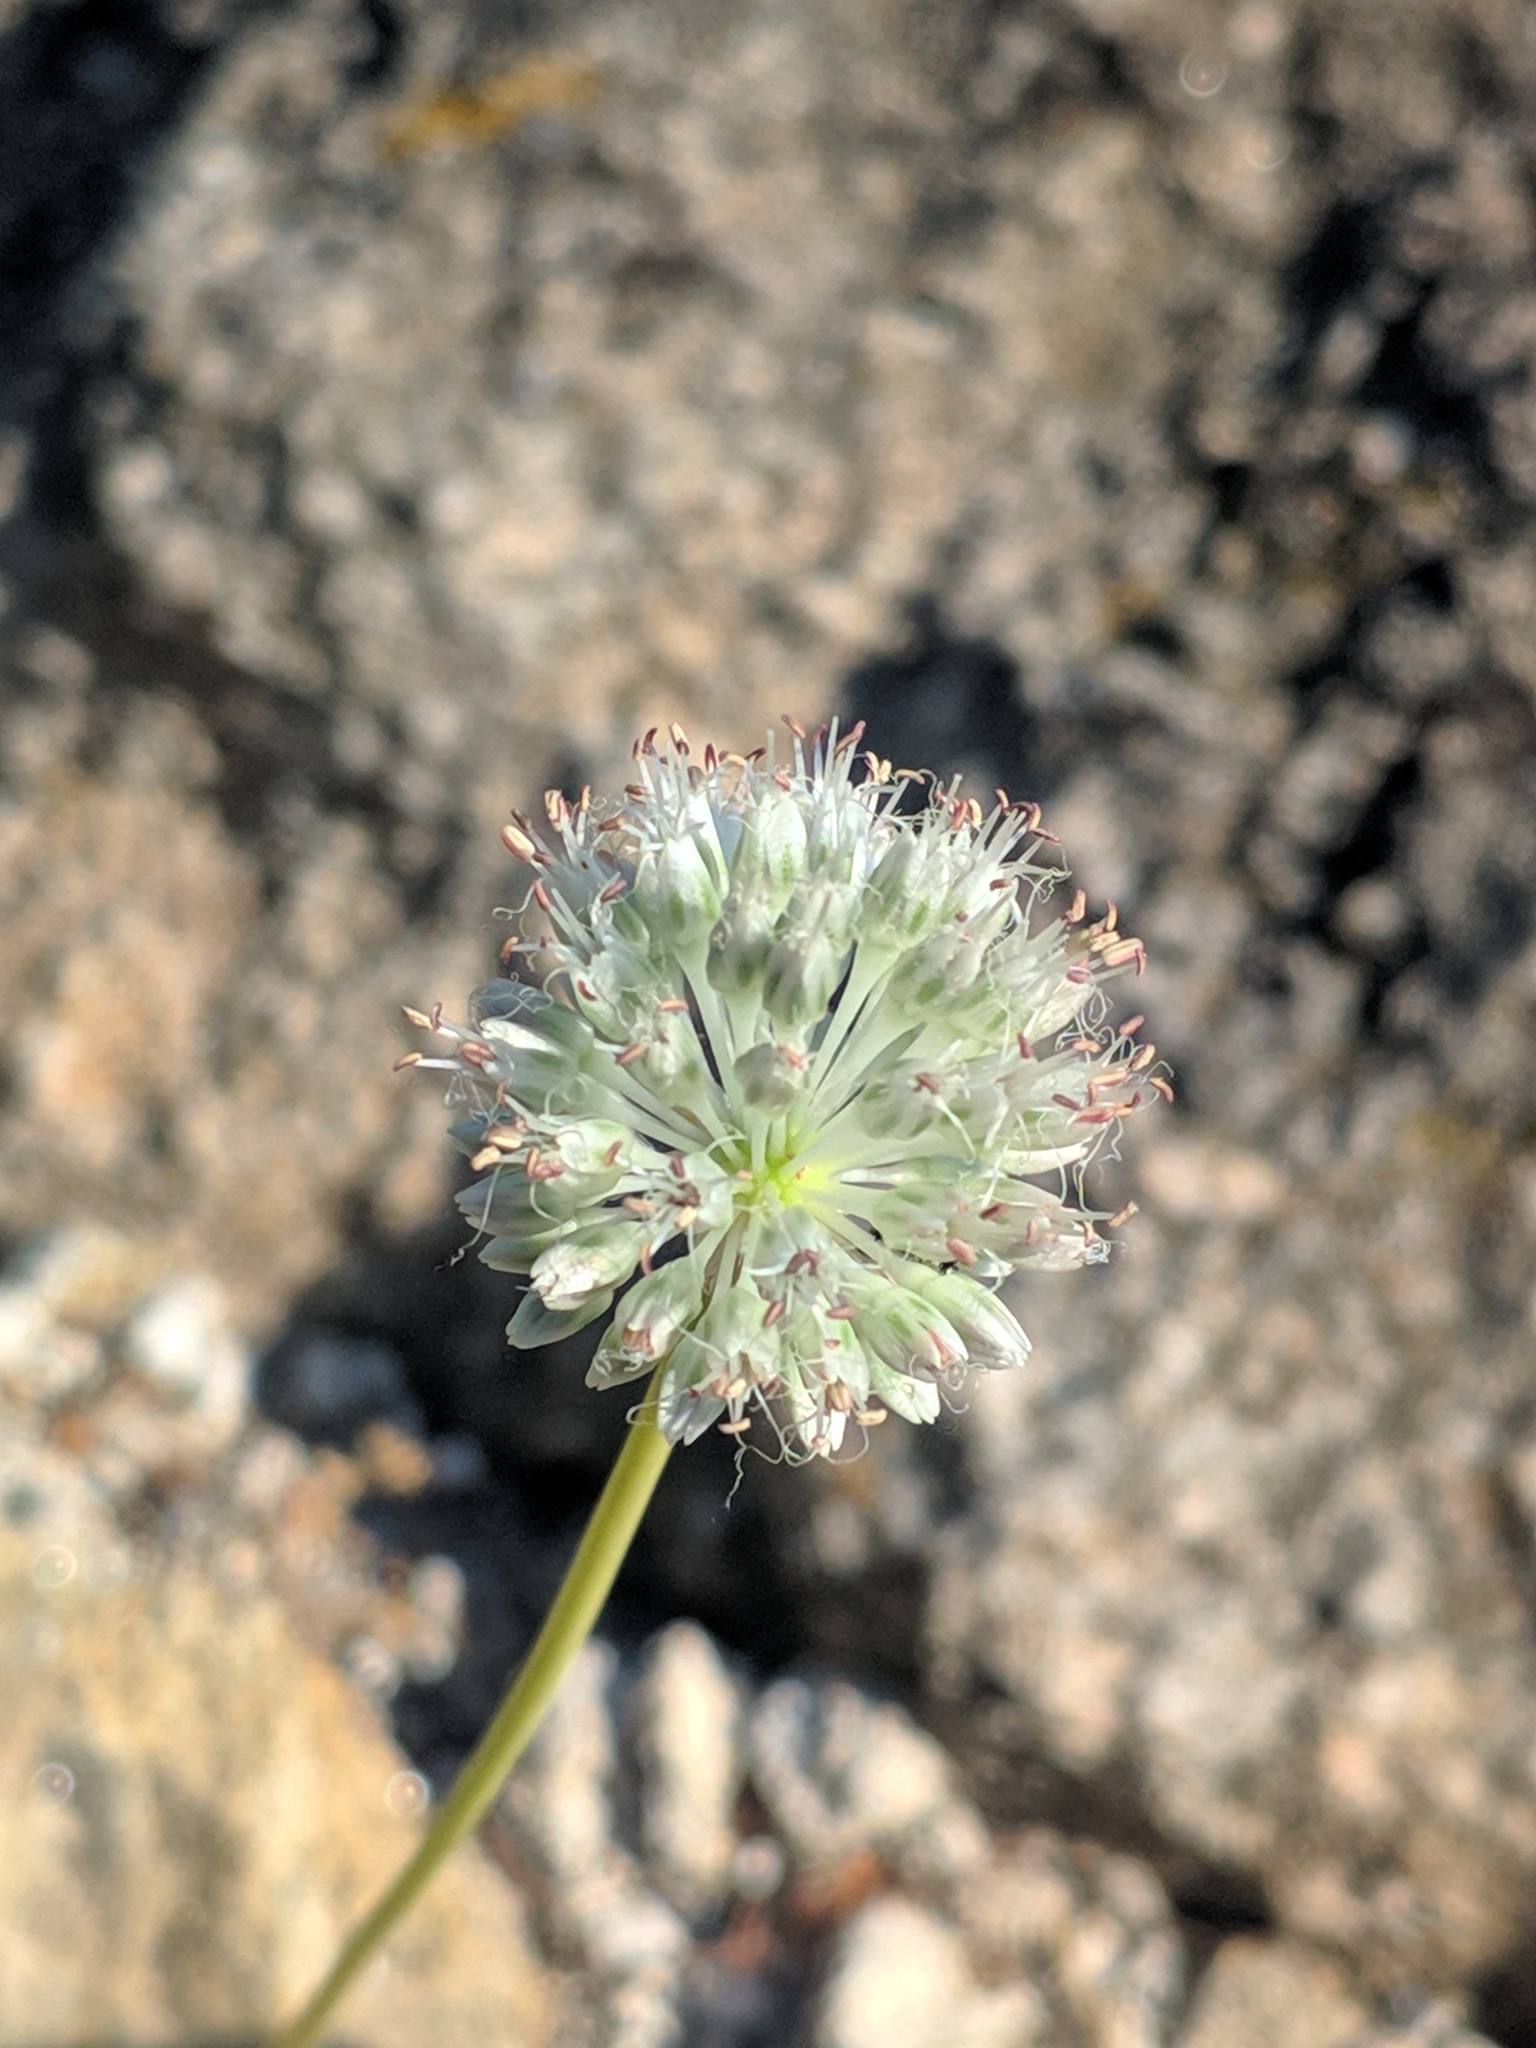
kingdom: Plantae
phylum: Tracheophyta
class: Liliopsida
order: Asparagales
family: Amaryllidaceae
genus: Allium
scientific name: Allium guttatum
